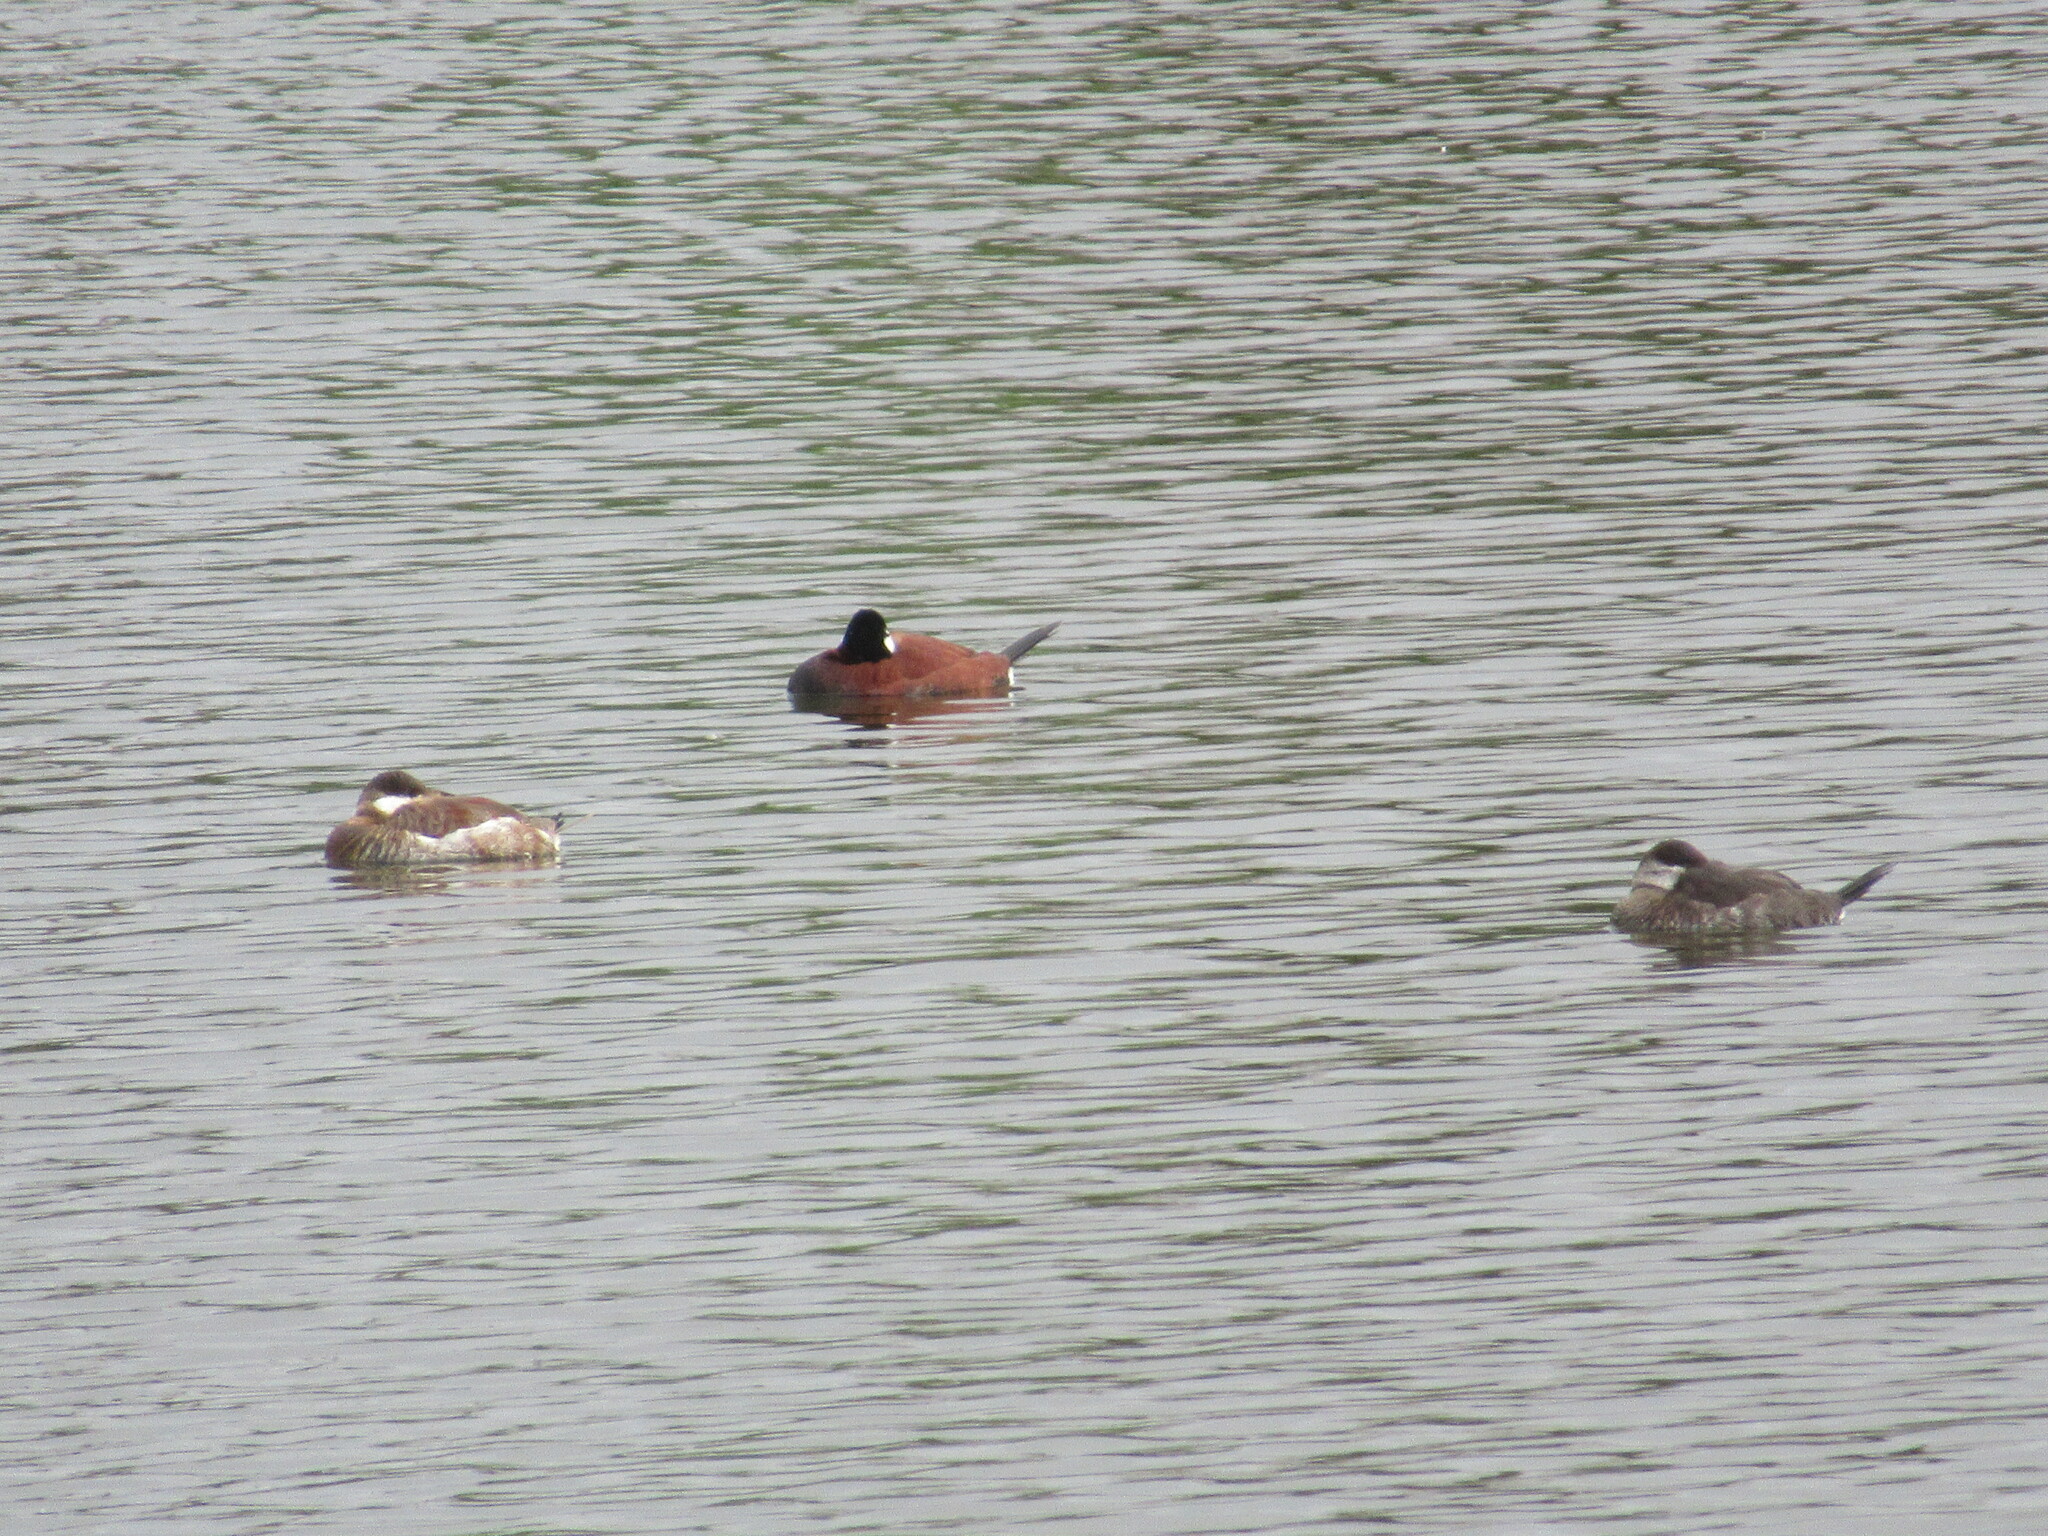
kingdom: Animalia
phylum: Chordata
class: Aves
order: Anseriformes
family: Anatidae
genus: Oxyura
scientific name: Oxyura jamaicensis
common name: Ruddy duck
